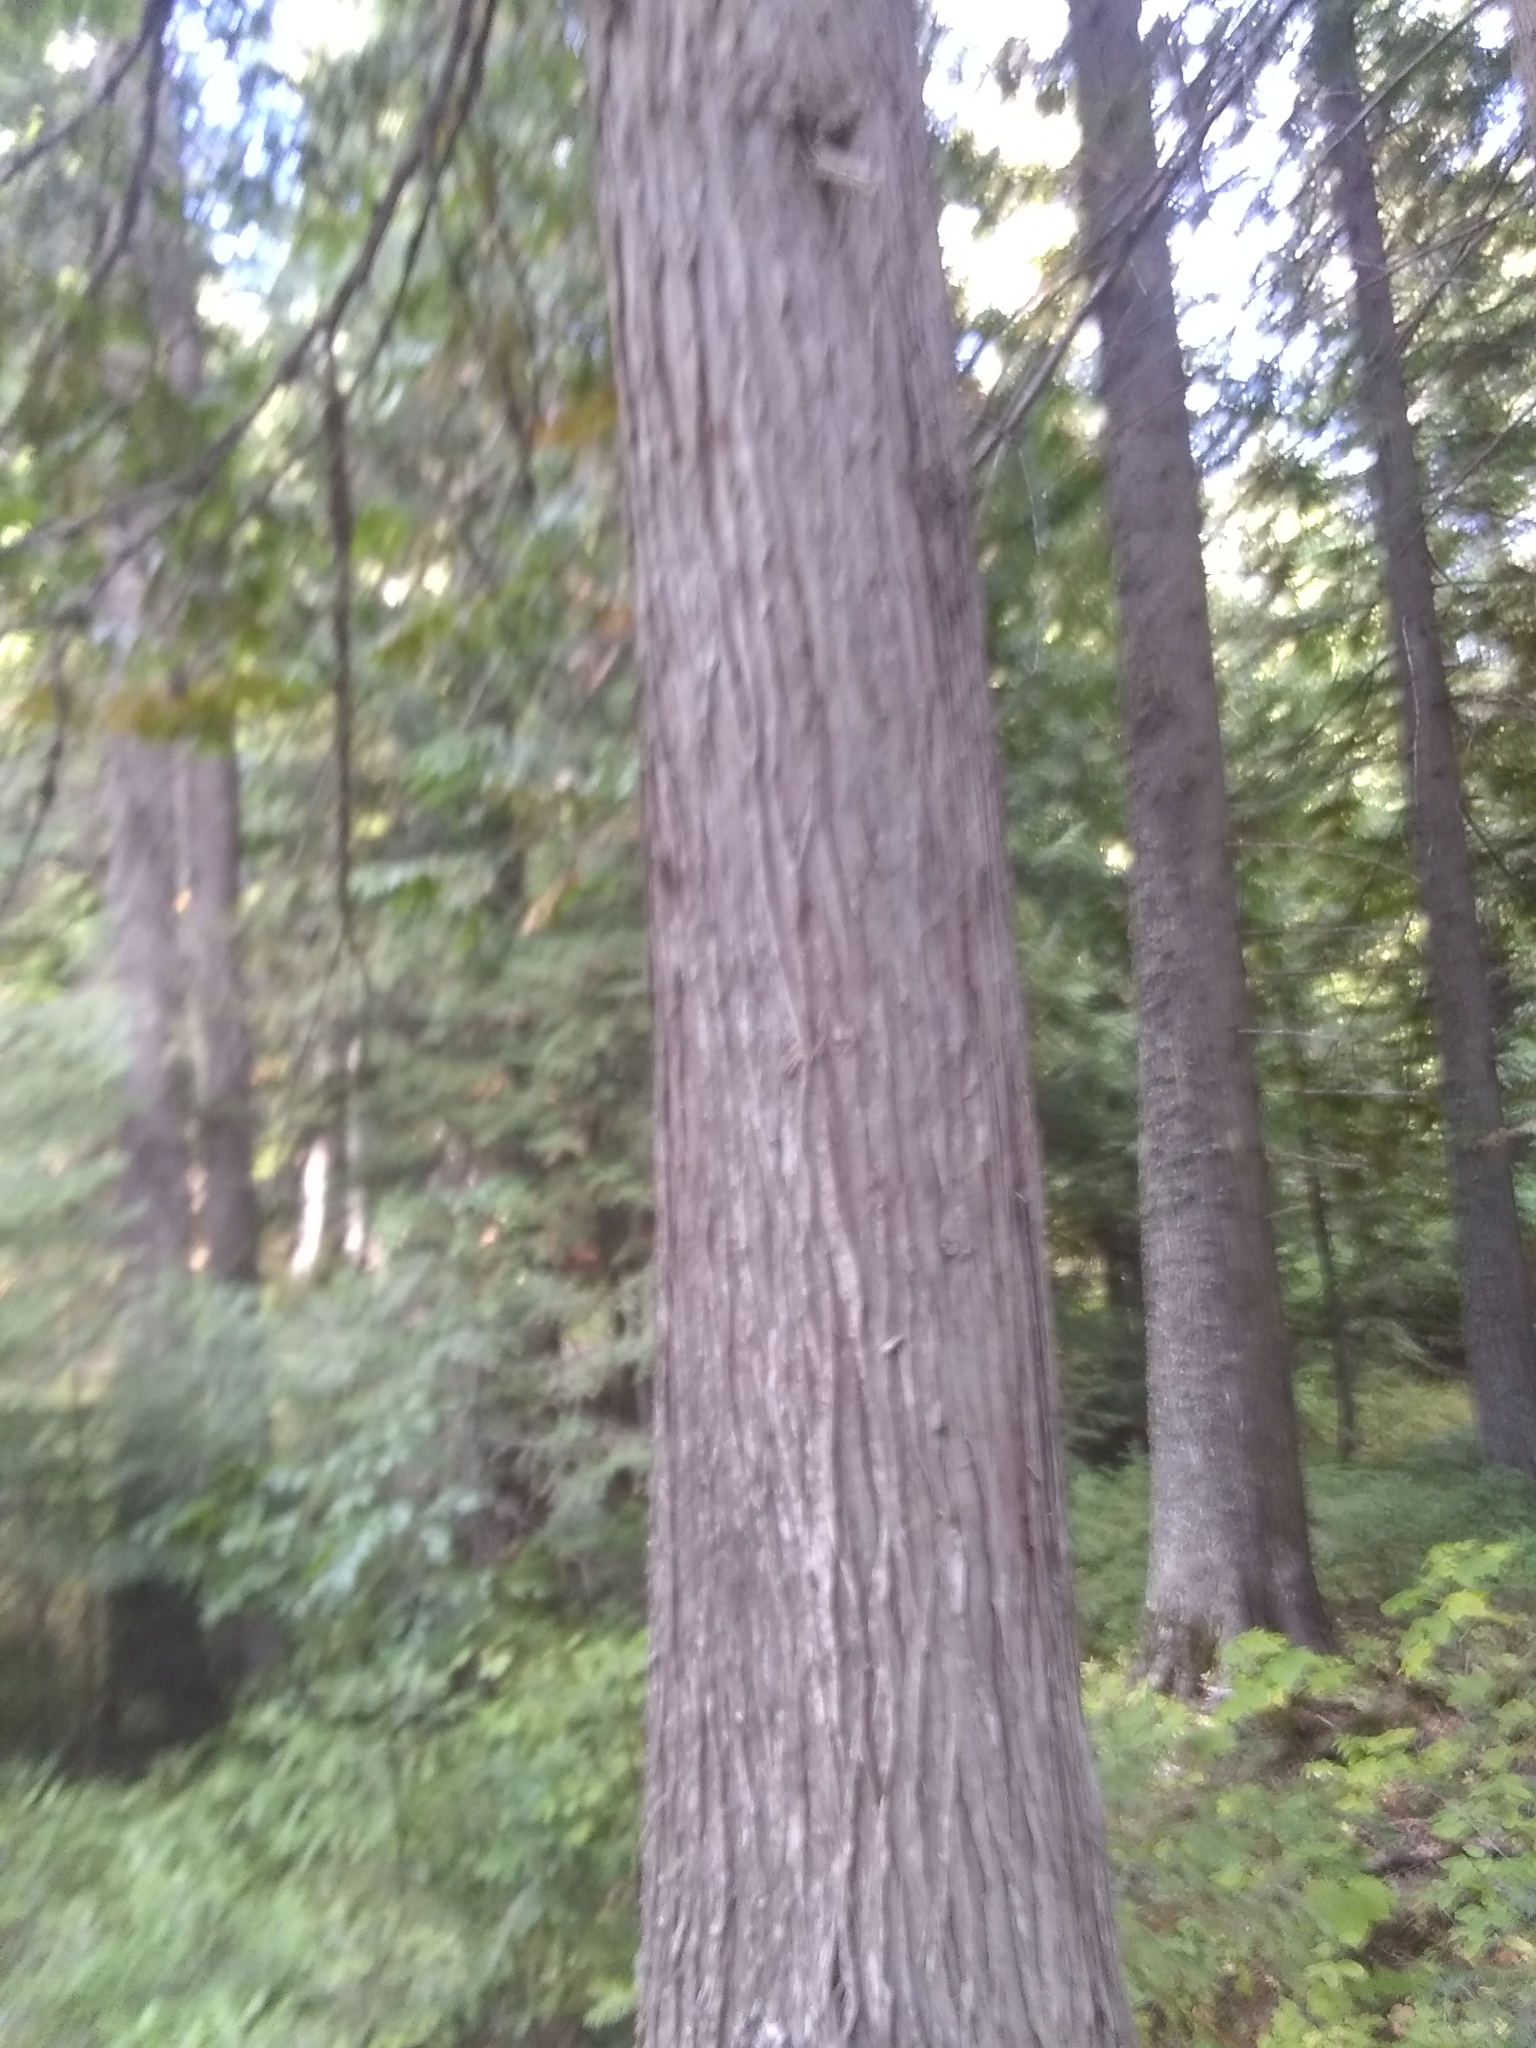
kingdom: Plantae
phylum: Tracheophyta
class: Pinopsida
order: Pinales
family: Cupressaceae
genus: Thuja
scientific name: Thuja plicata
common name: Western red-cedar
